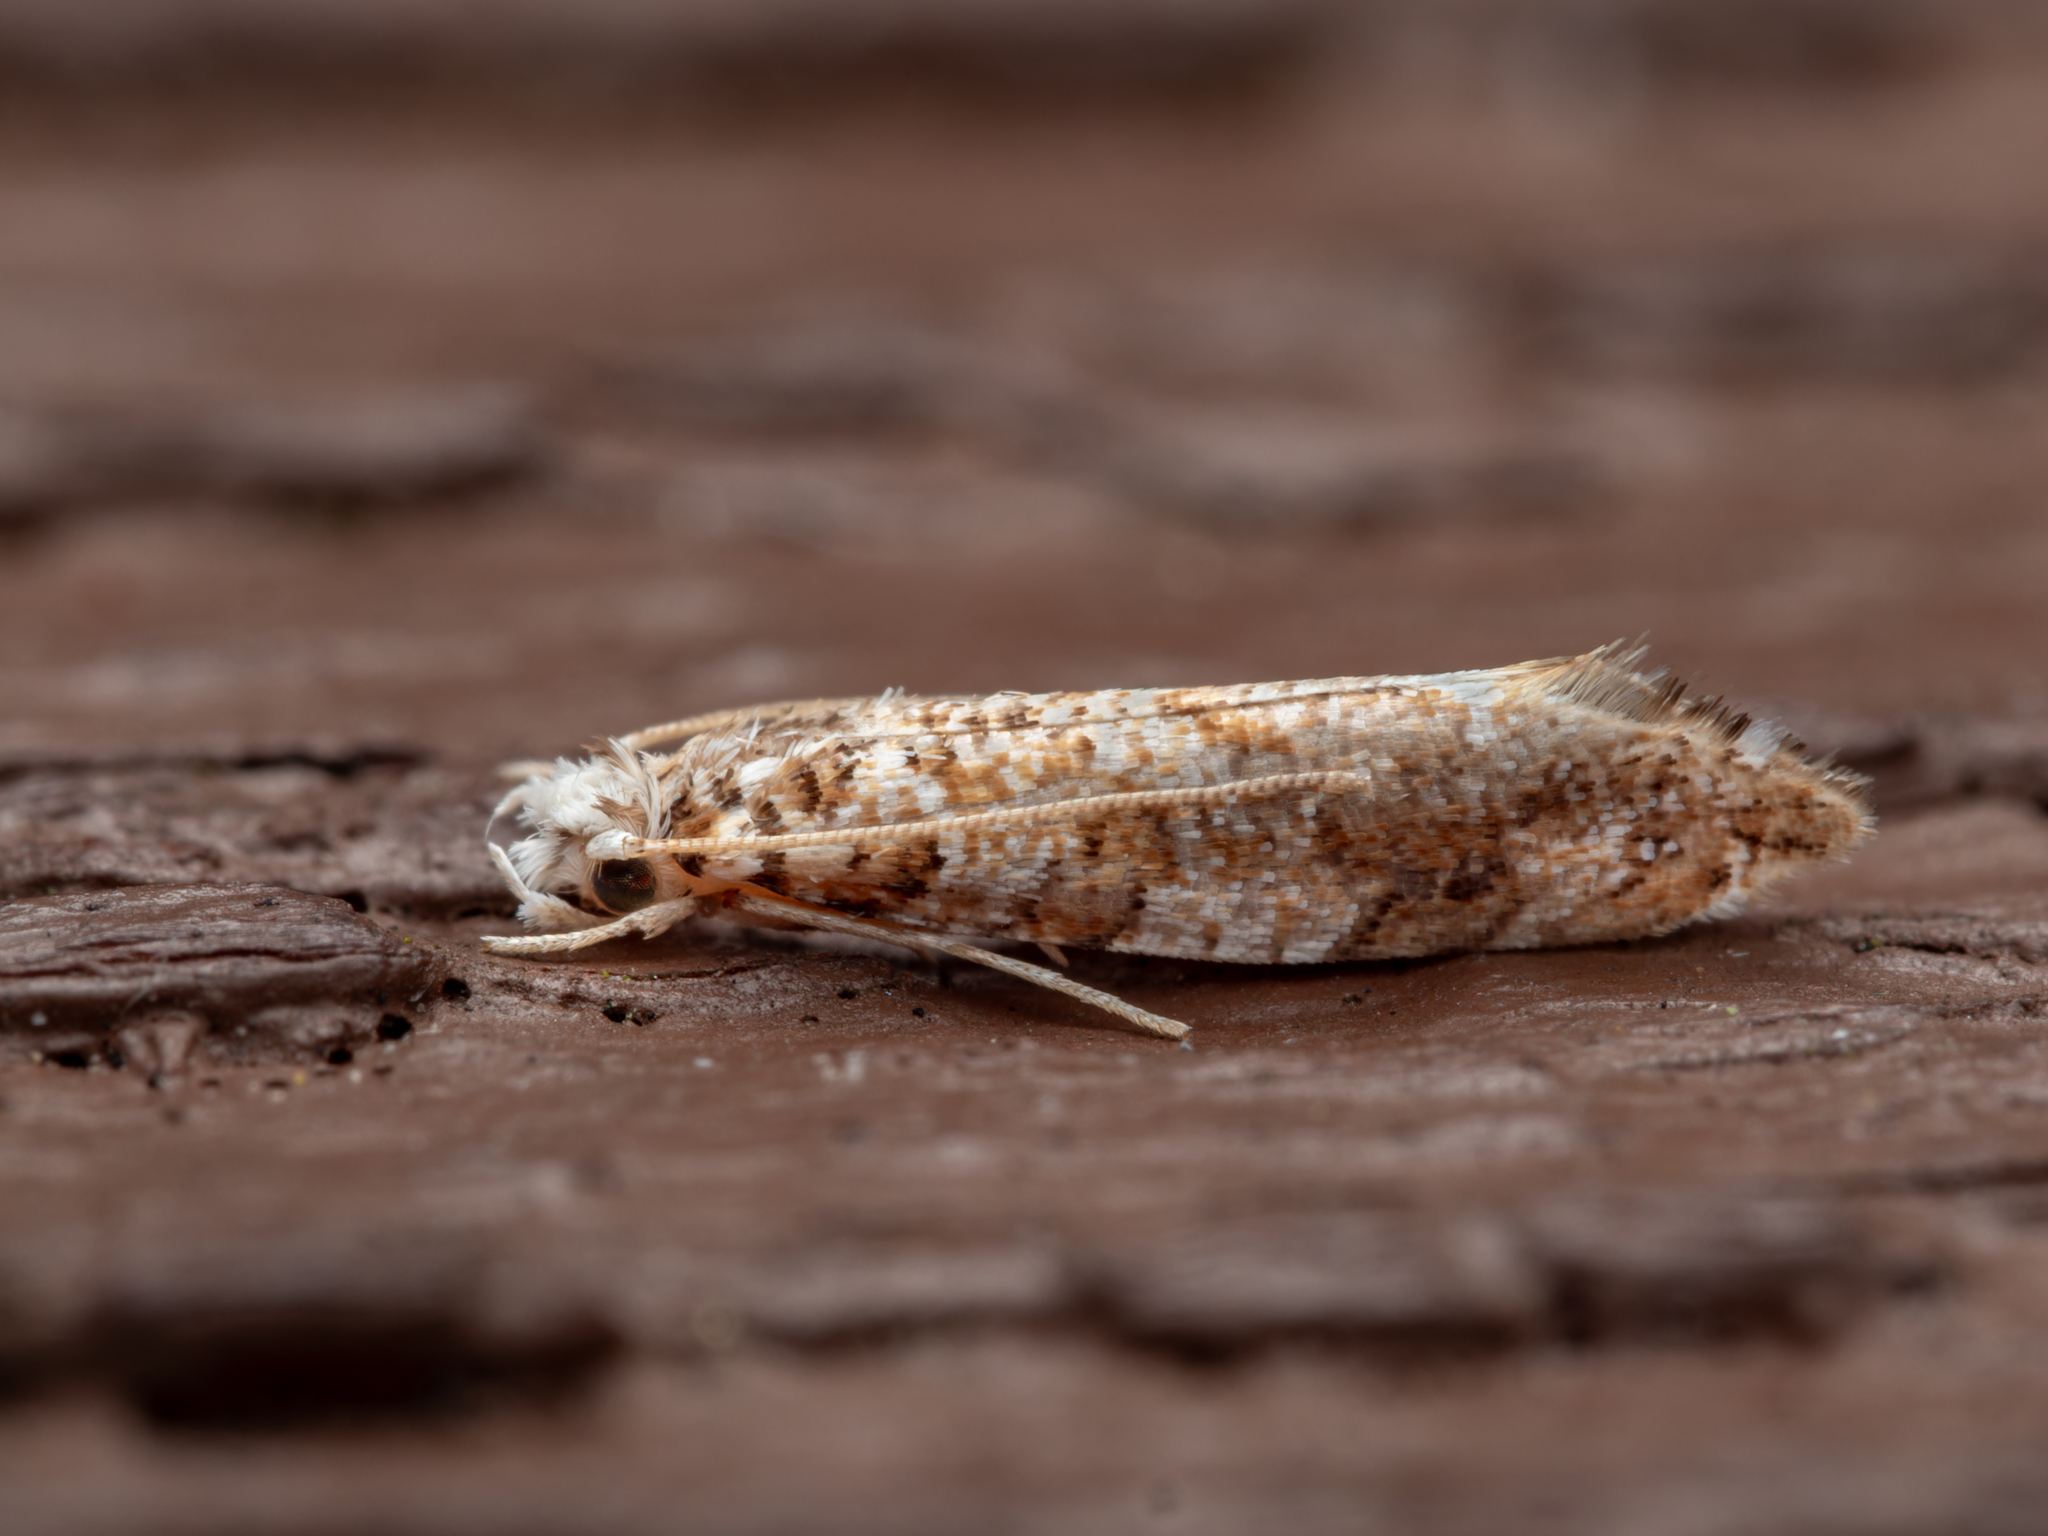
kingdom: Animalia
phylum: Arthropoda
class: Insecta
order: Lepidoptera
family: Tineidae
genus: Eschatotypa
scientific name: Eschatotypa derogatella
